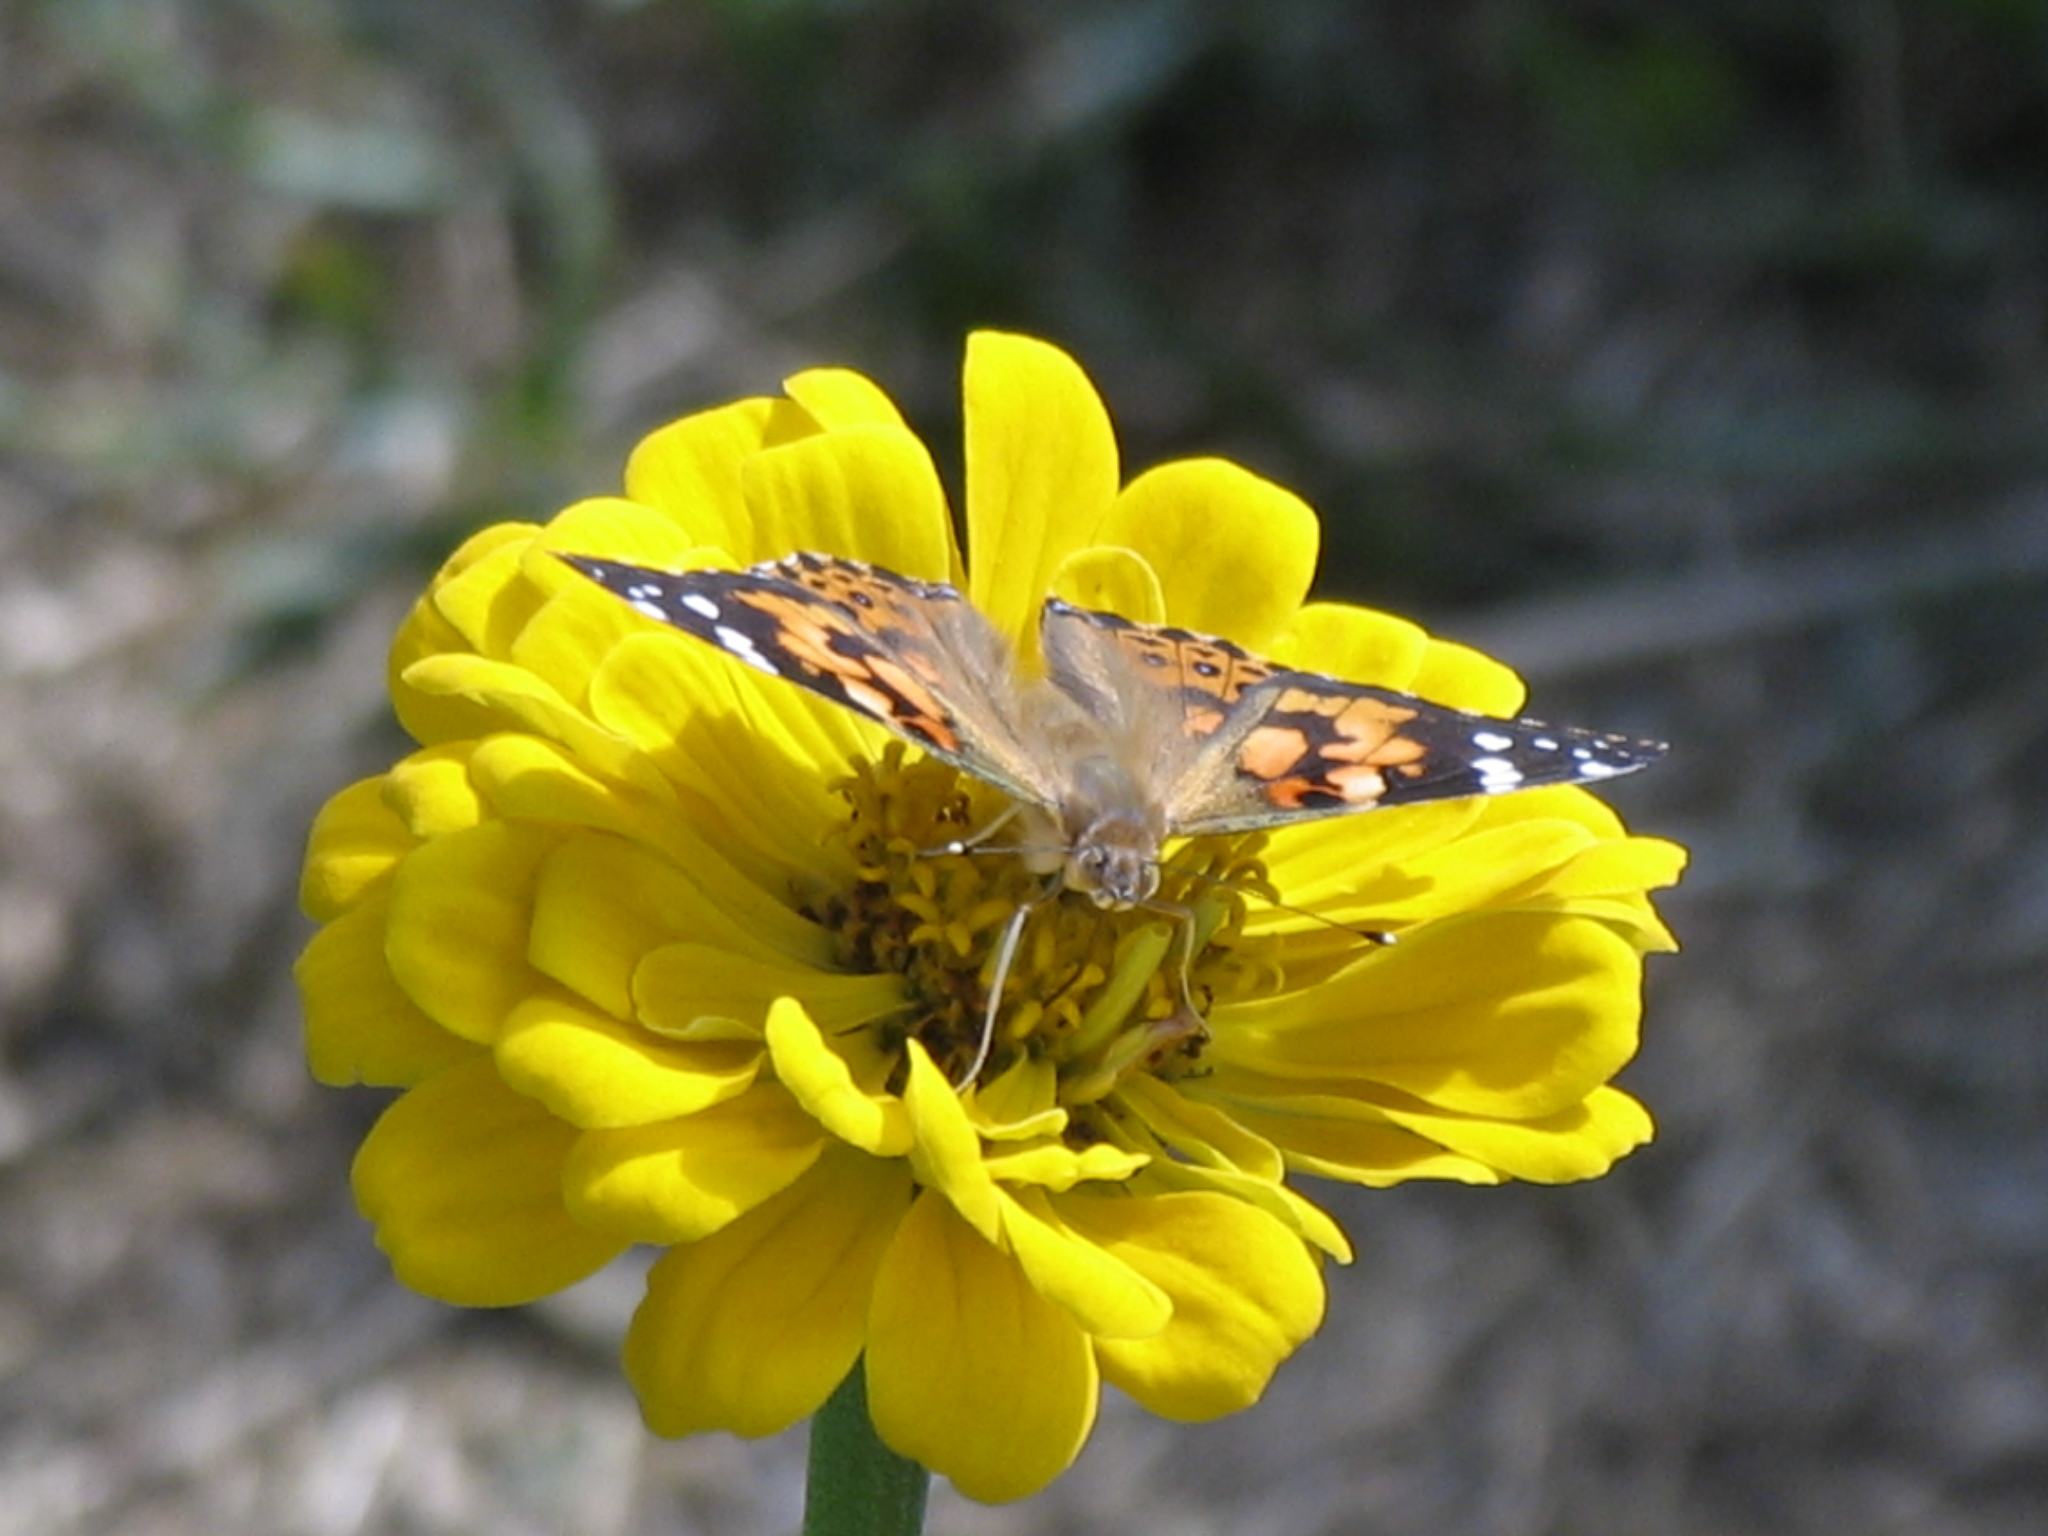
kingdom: Animalia
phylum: Arthropoda
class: Insecta
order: Lepidoptera
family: Nymphalidae
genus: Vanessa
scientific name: Vanessa cardui
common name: Painted lady
